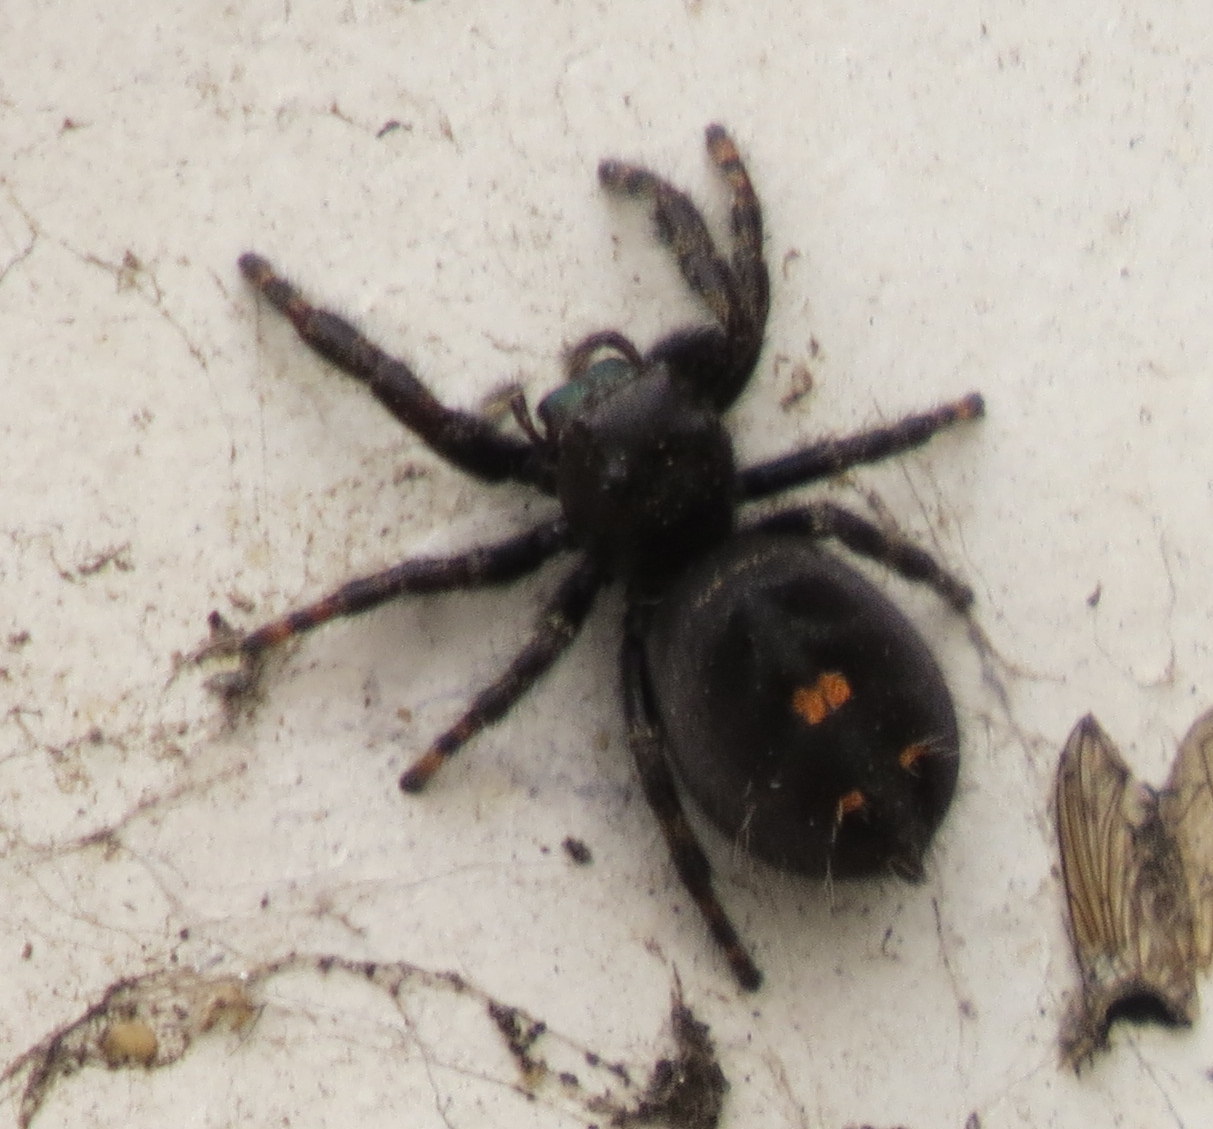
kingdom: Animalia
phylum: Arthropoda
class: Arachnida
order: Araneae
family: Salticidae
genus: Phidippus
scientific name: Phidippus audax
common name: Bold jumper
